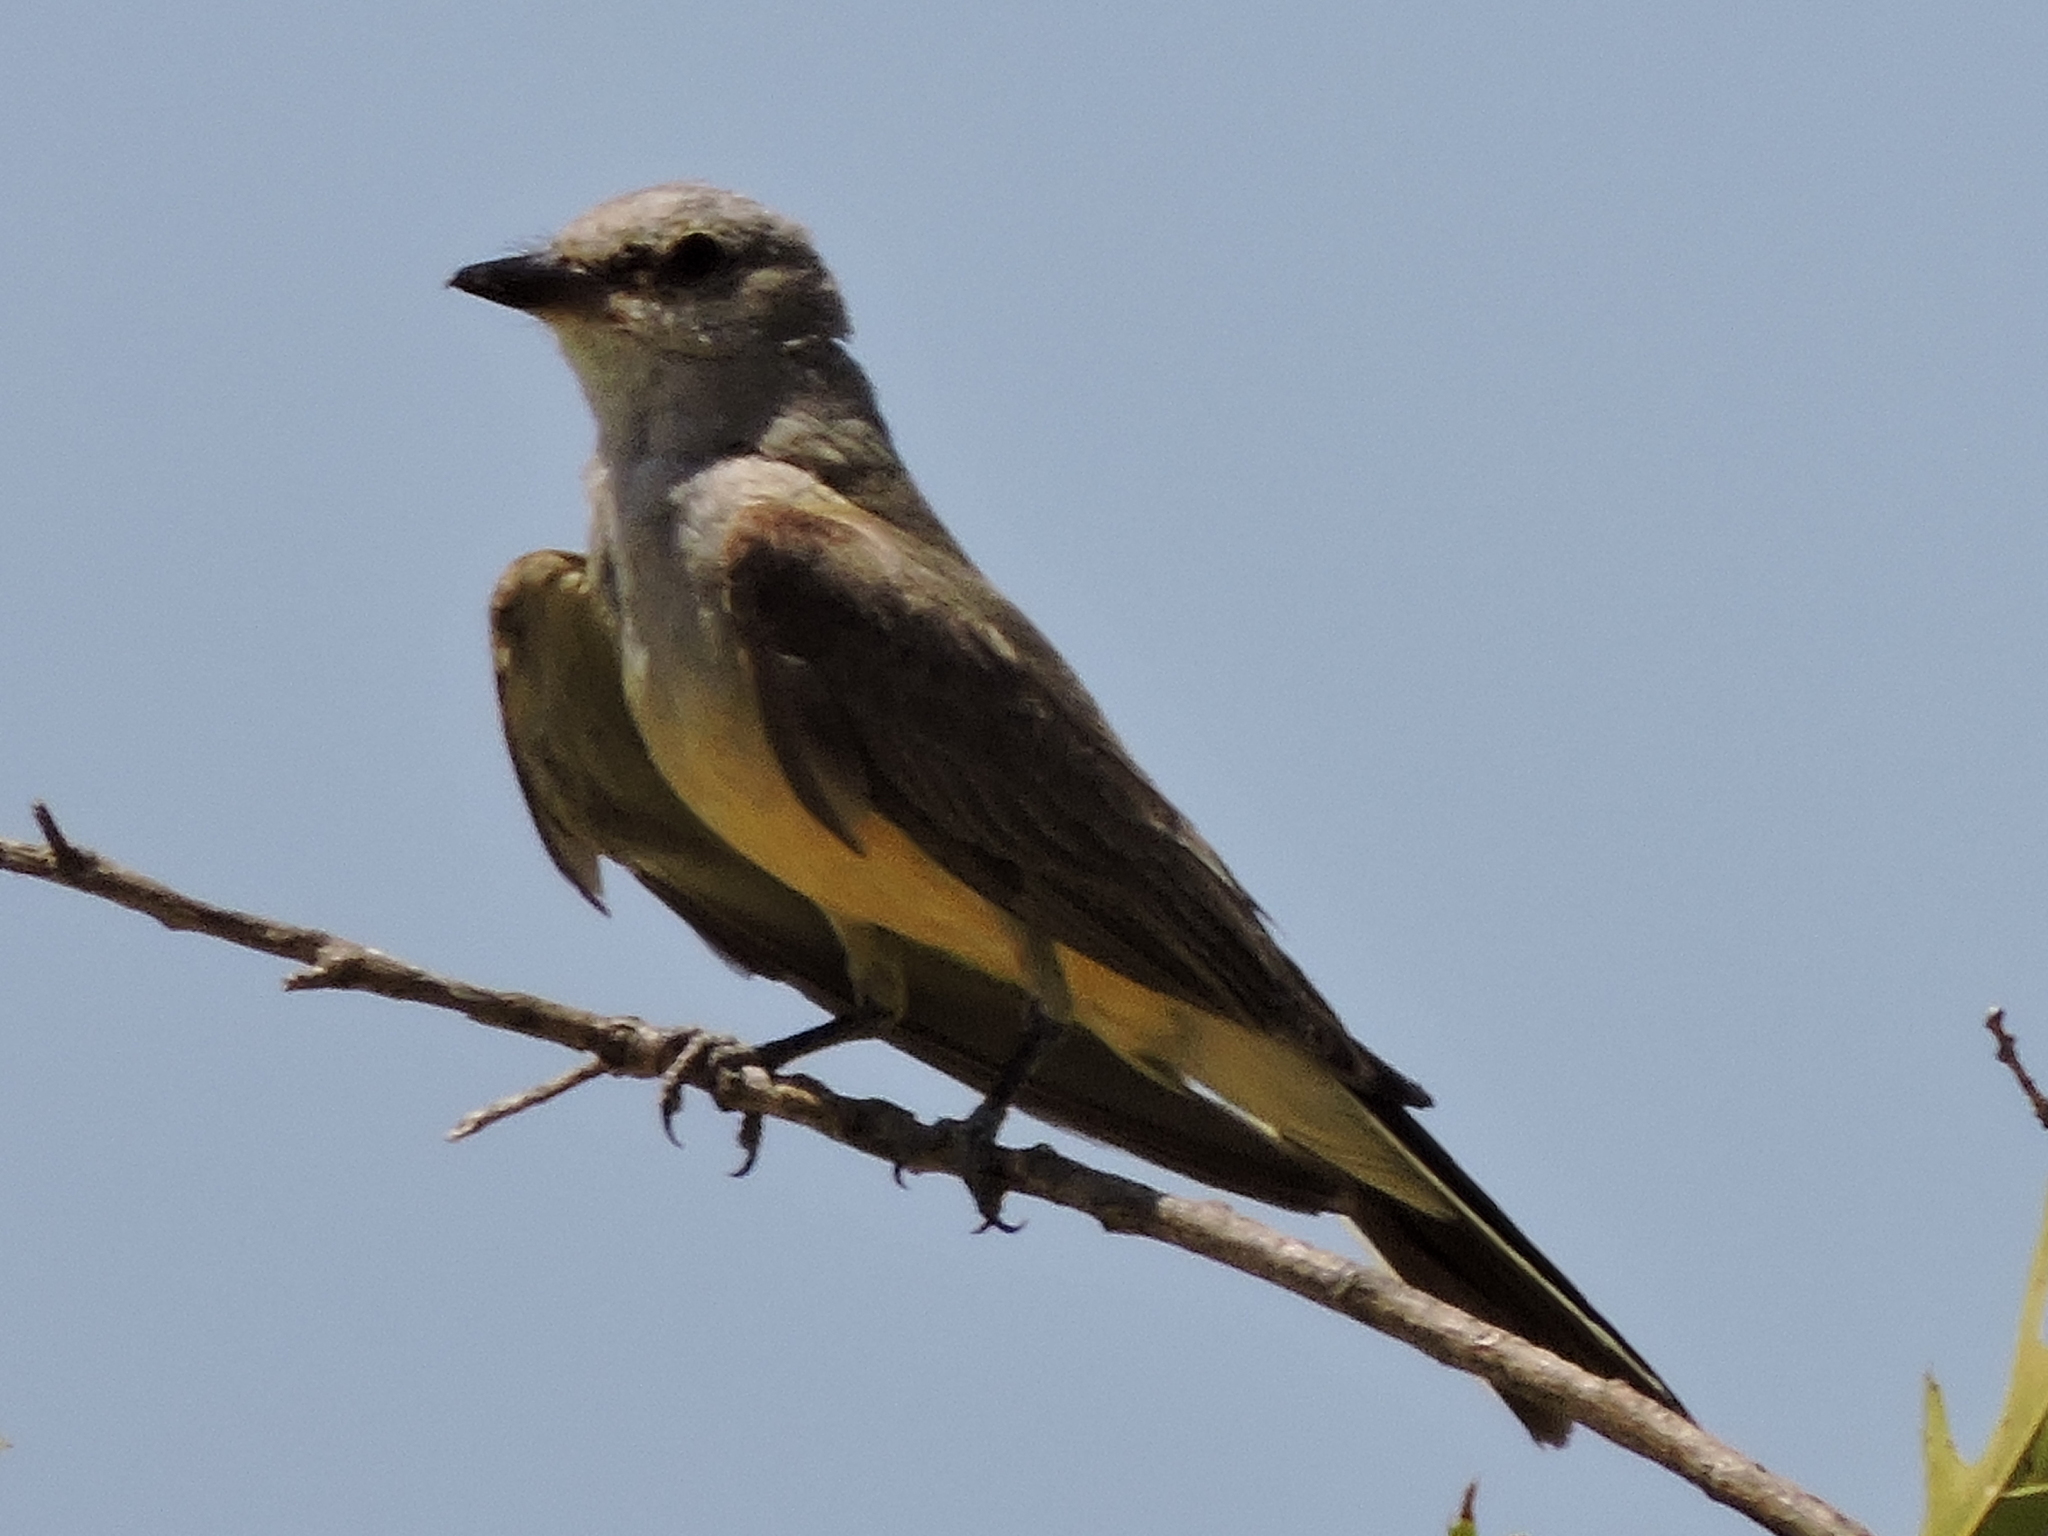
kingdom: Animalia
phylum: Chordata
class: Aves
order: Passeriformes
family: Tyrannidae
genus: Tyrannus
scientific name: Tyrannus verticalis
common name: Western kingbird
